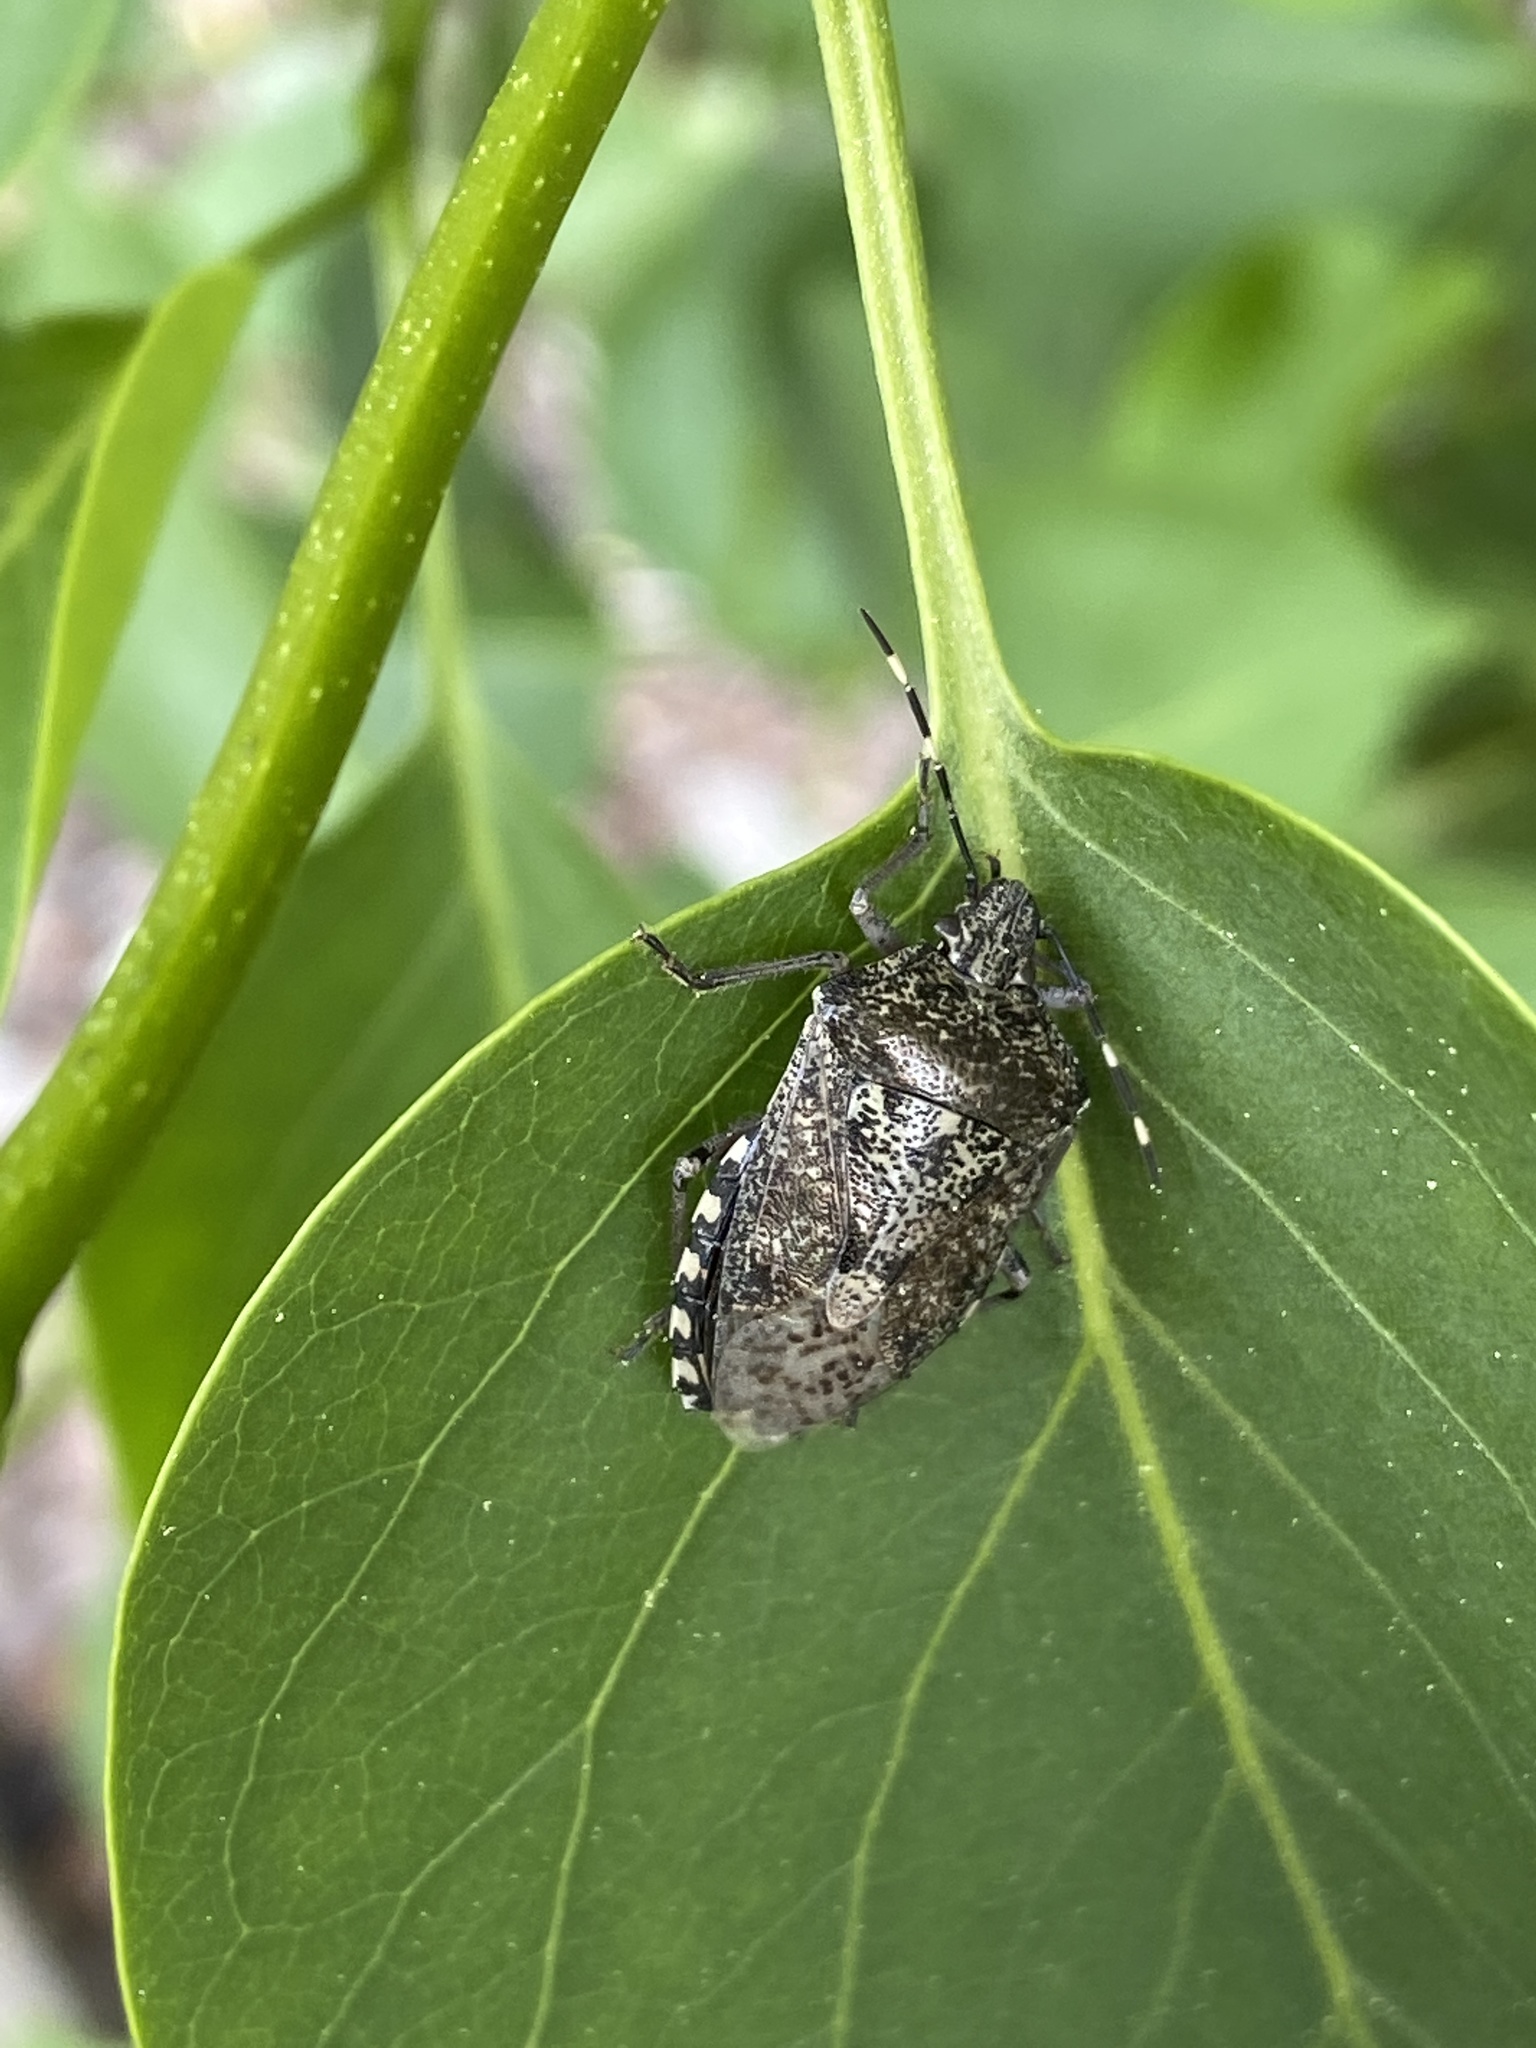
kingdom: Animalia
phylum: Arthropoda
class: Insecta
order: Hemiptera
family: Pentatomidae
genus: Rhaphigaster
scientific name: Rhaphigaster nebulosa
